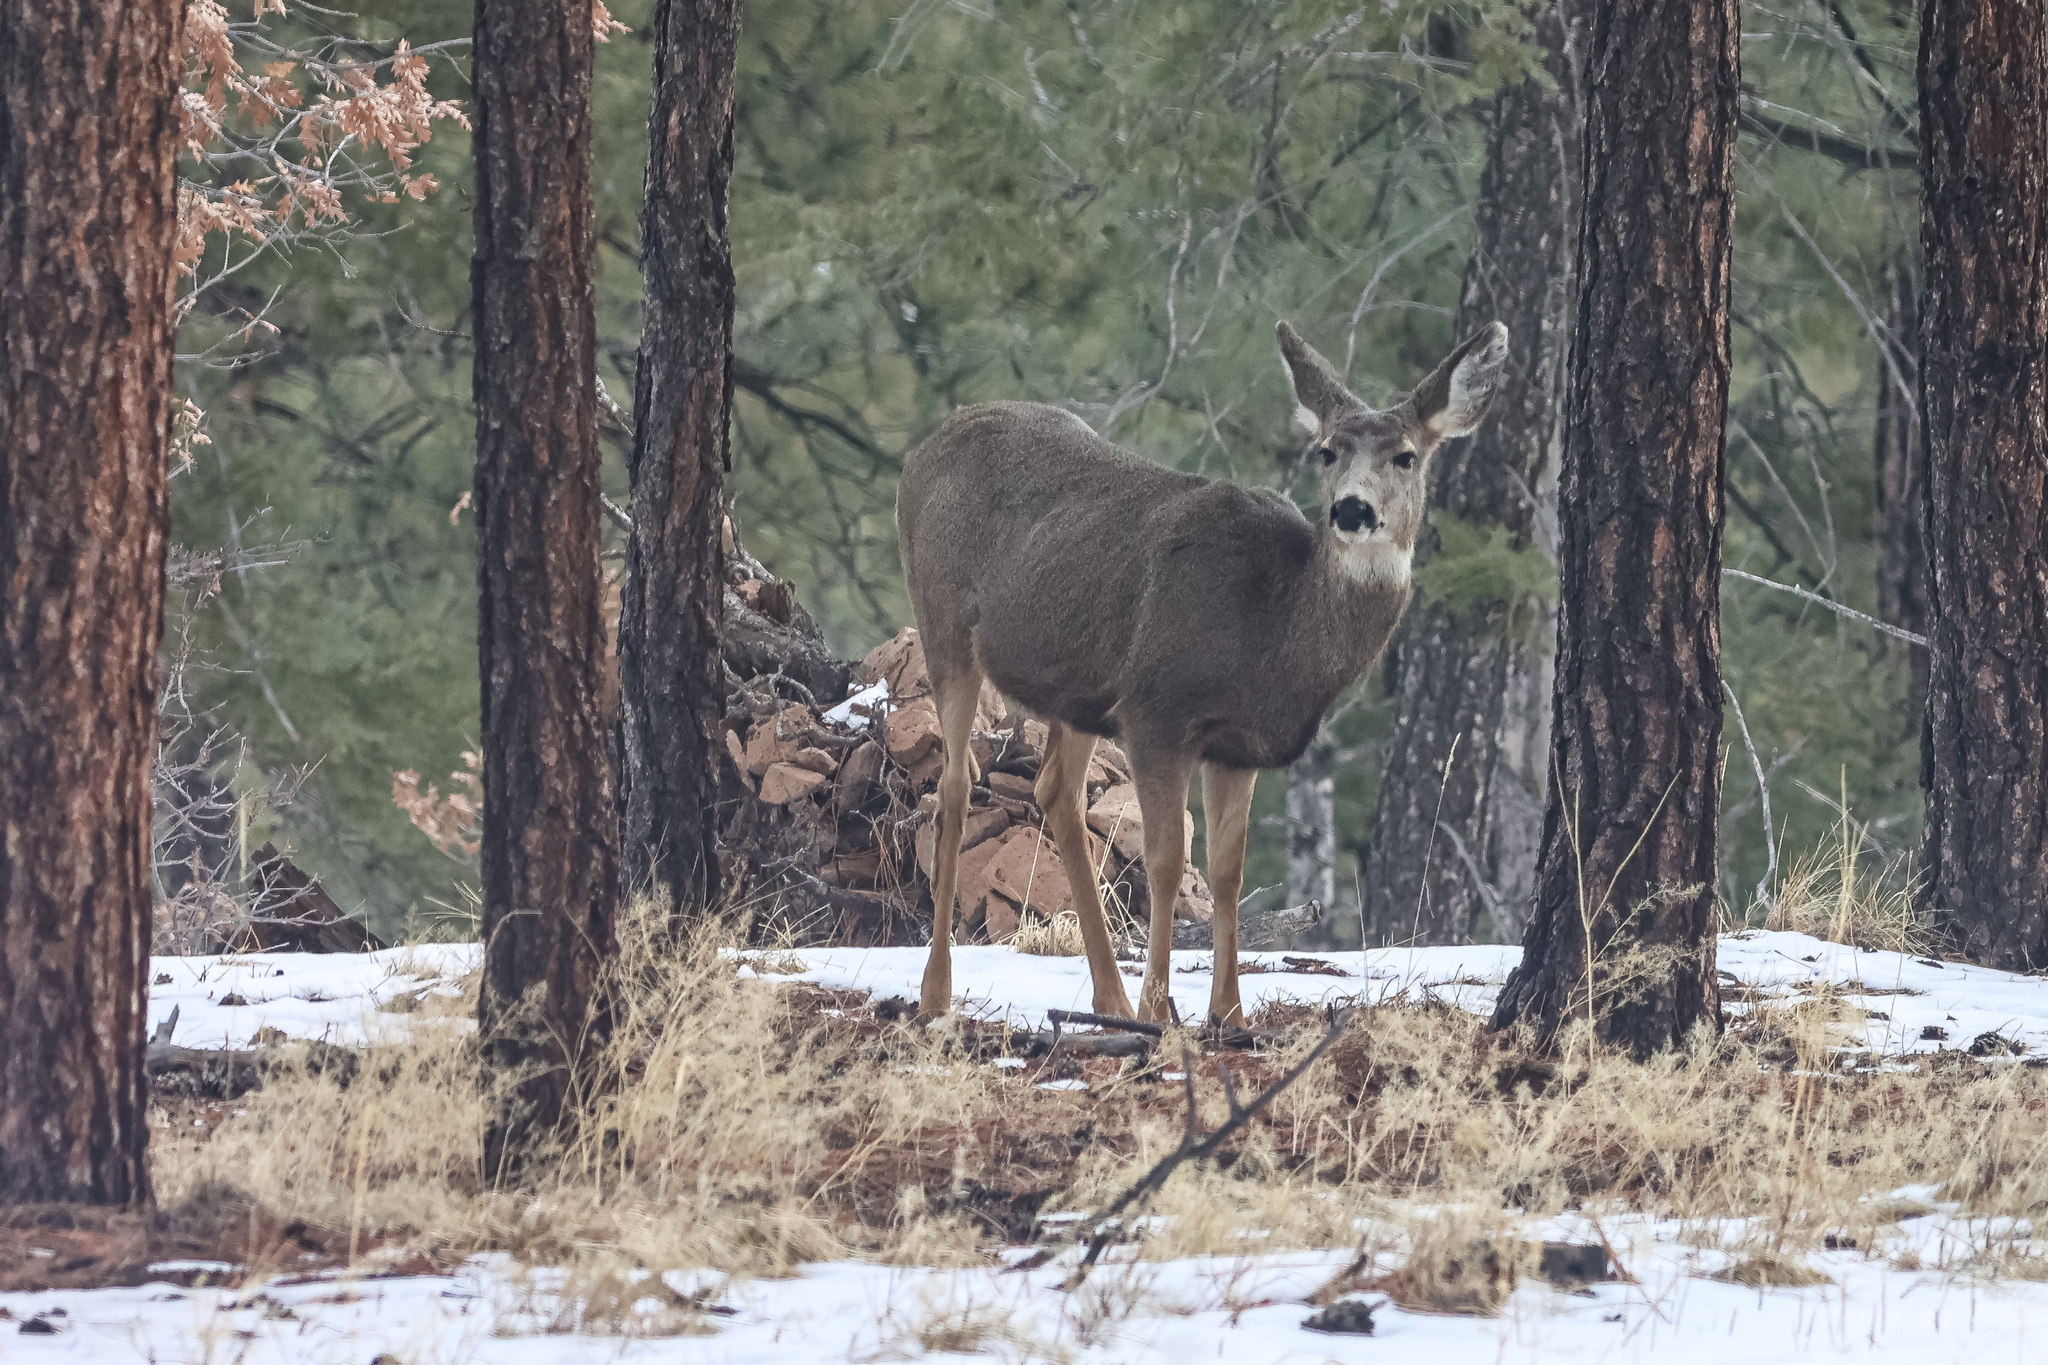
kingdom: Animalia
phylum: Chordata
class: Mammalia
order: Artiodactyla
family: Cervidae
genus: Odocoileus
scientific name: Odocoileus hemionus
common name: Mule deer
